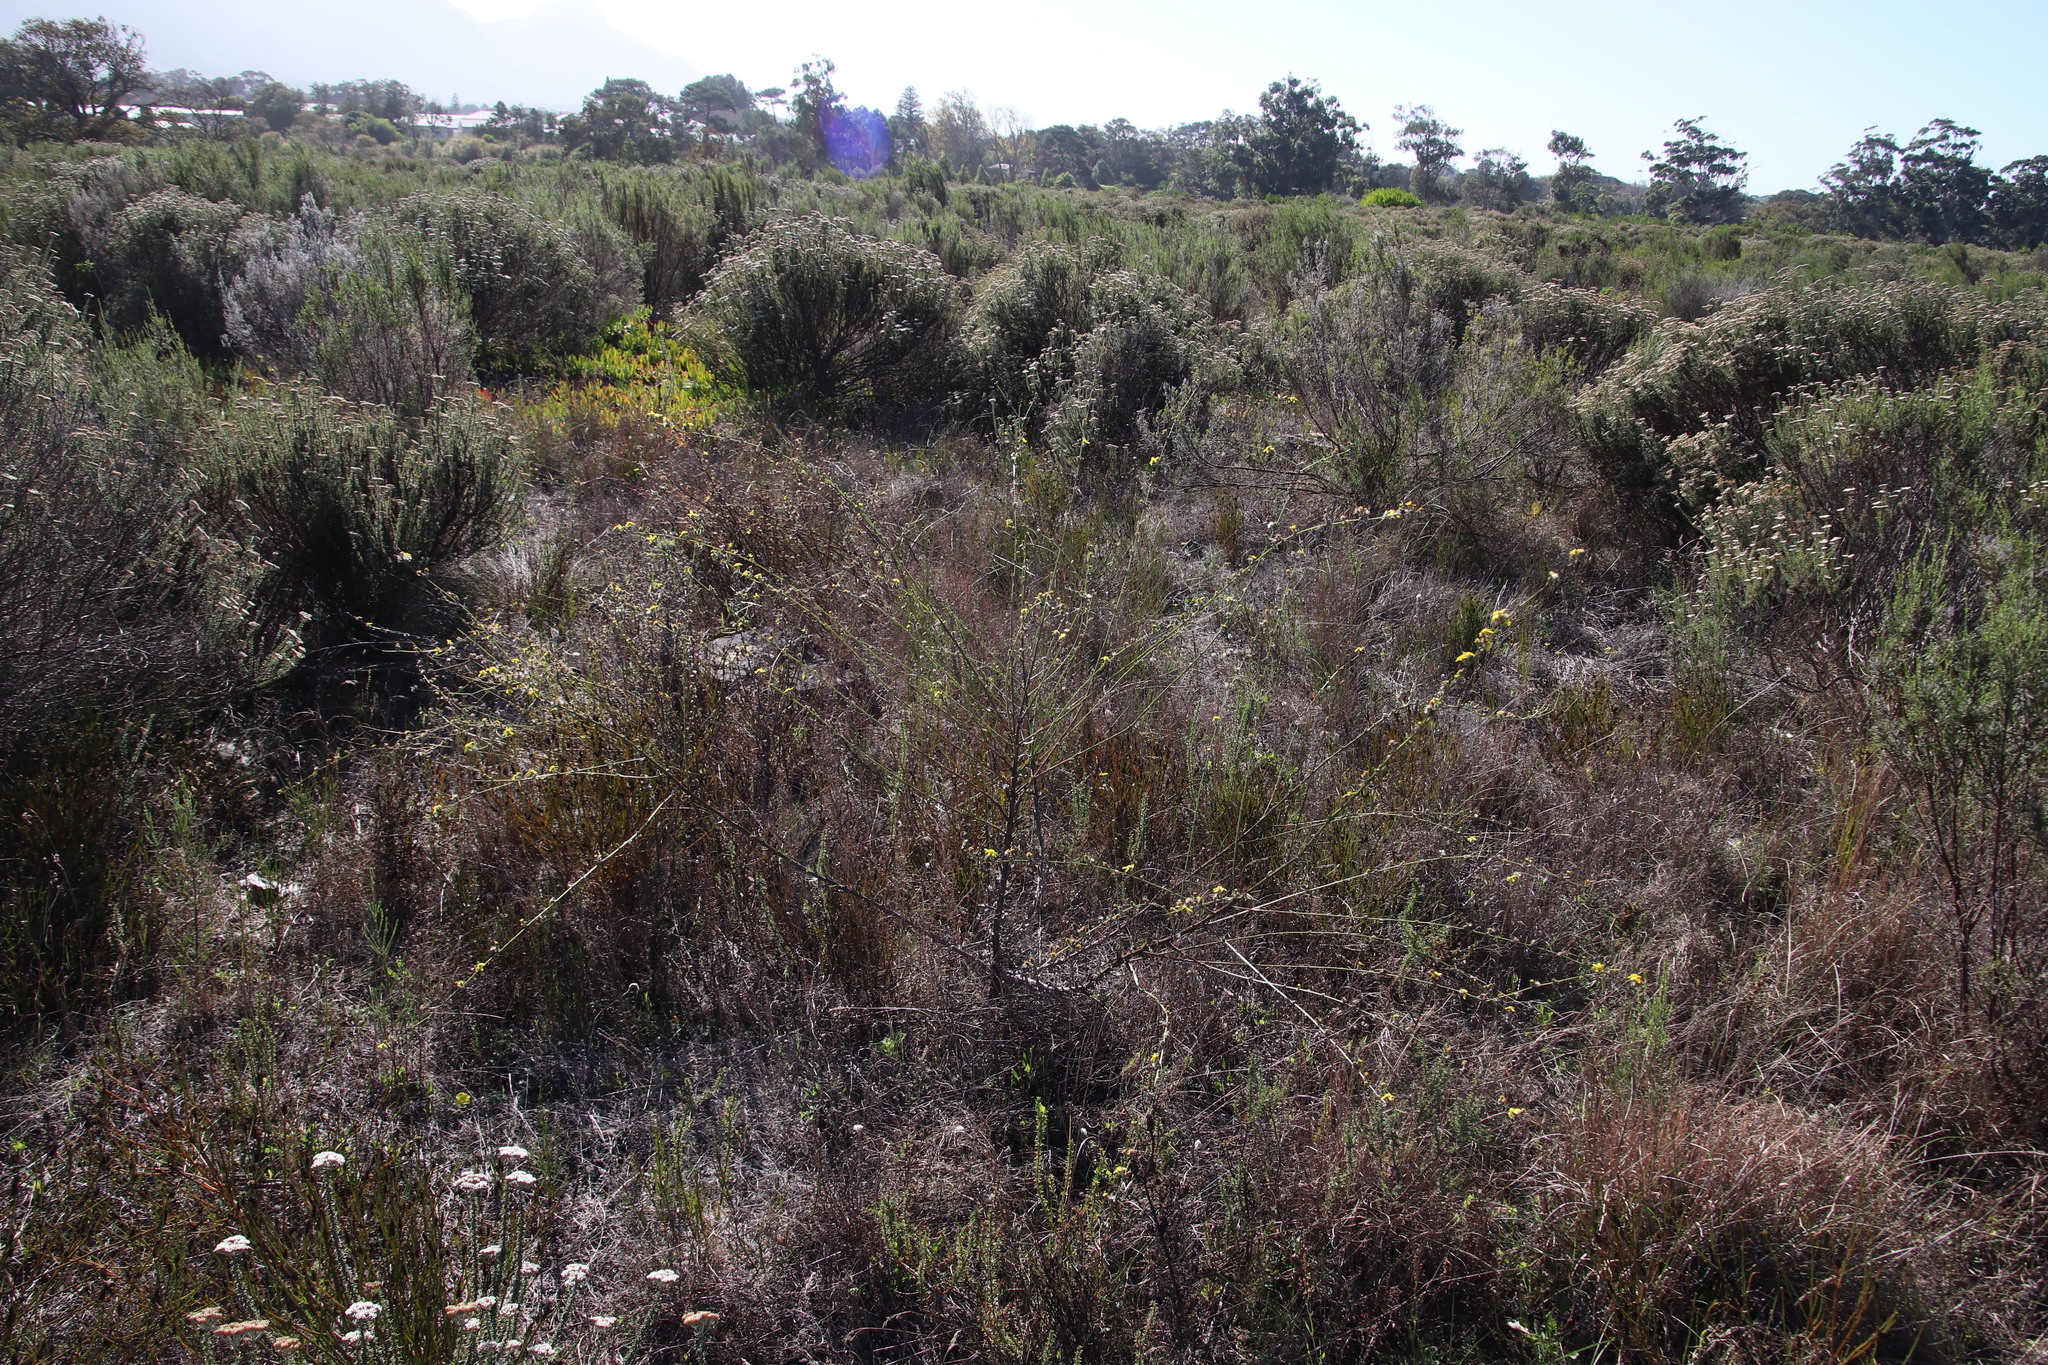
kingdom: Plantae
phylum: Tracheophyta
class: Magnoliopsida
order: Asterales
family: Asteraceae
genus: Senecio
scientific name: Senecio pubigerus
